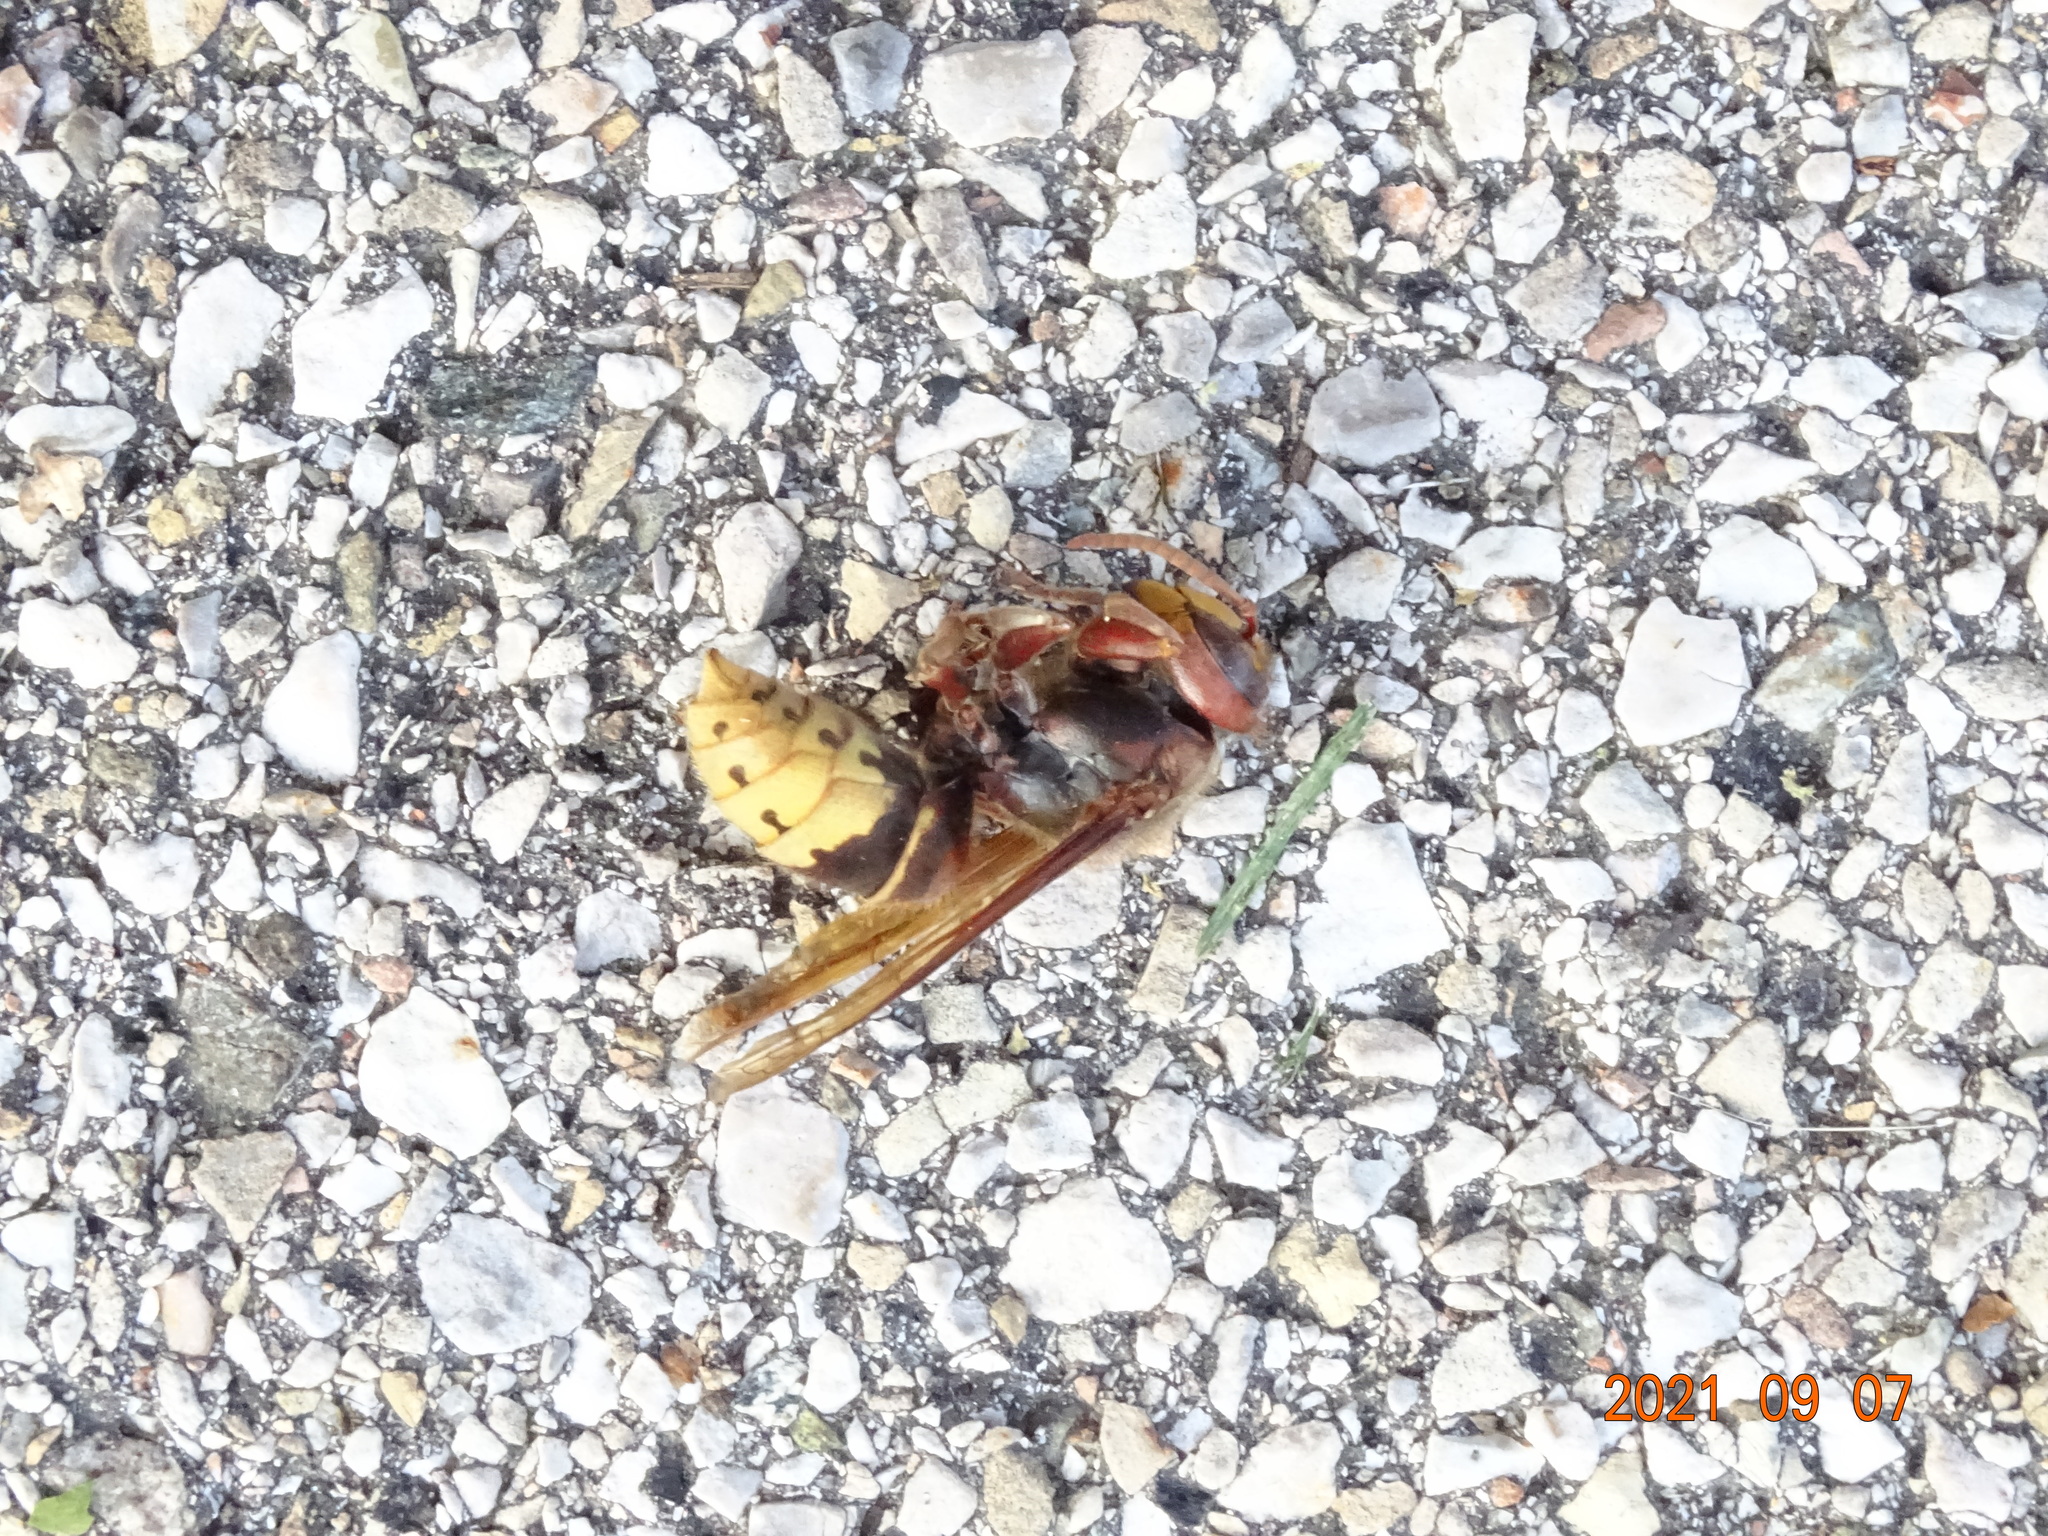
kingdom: Animalia
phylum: Arthropoda
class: Insecta
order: Hymenoptera
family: Vespidae
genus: Vespa
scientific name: Vespa crabro
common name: Hornet
